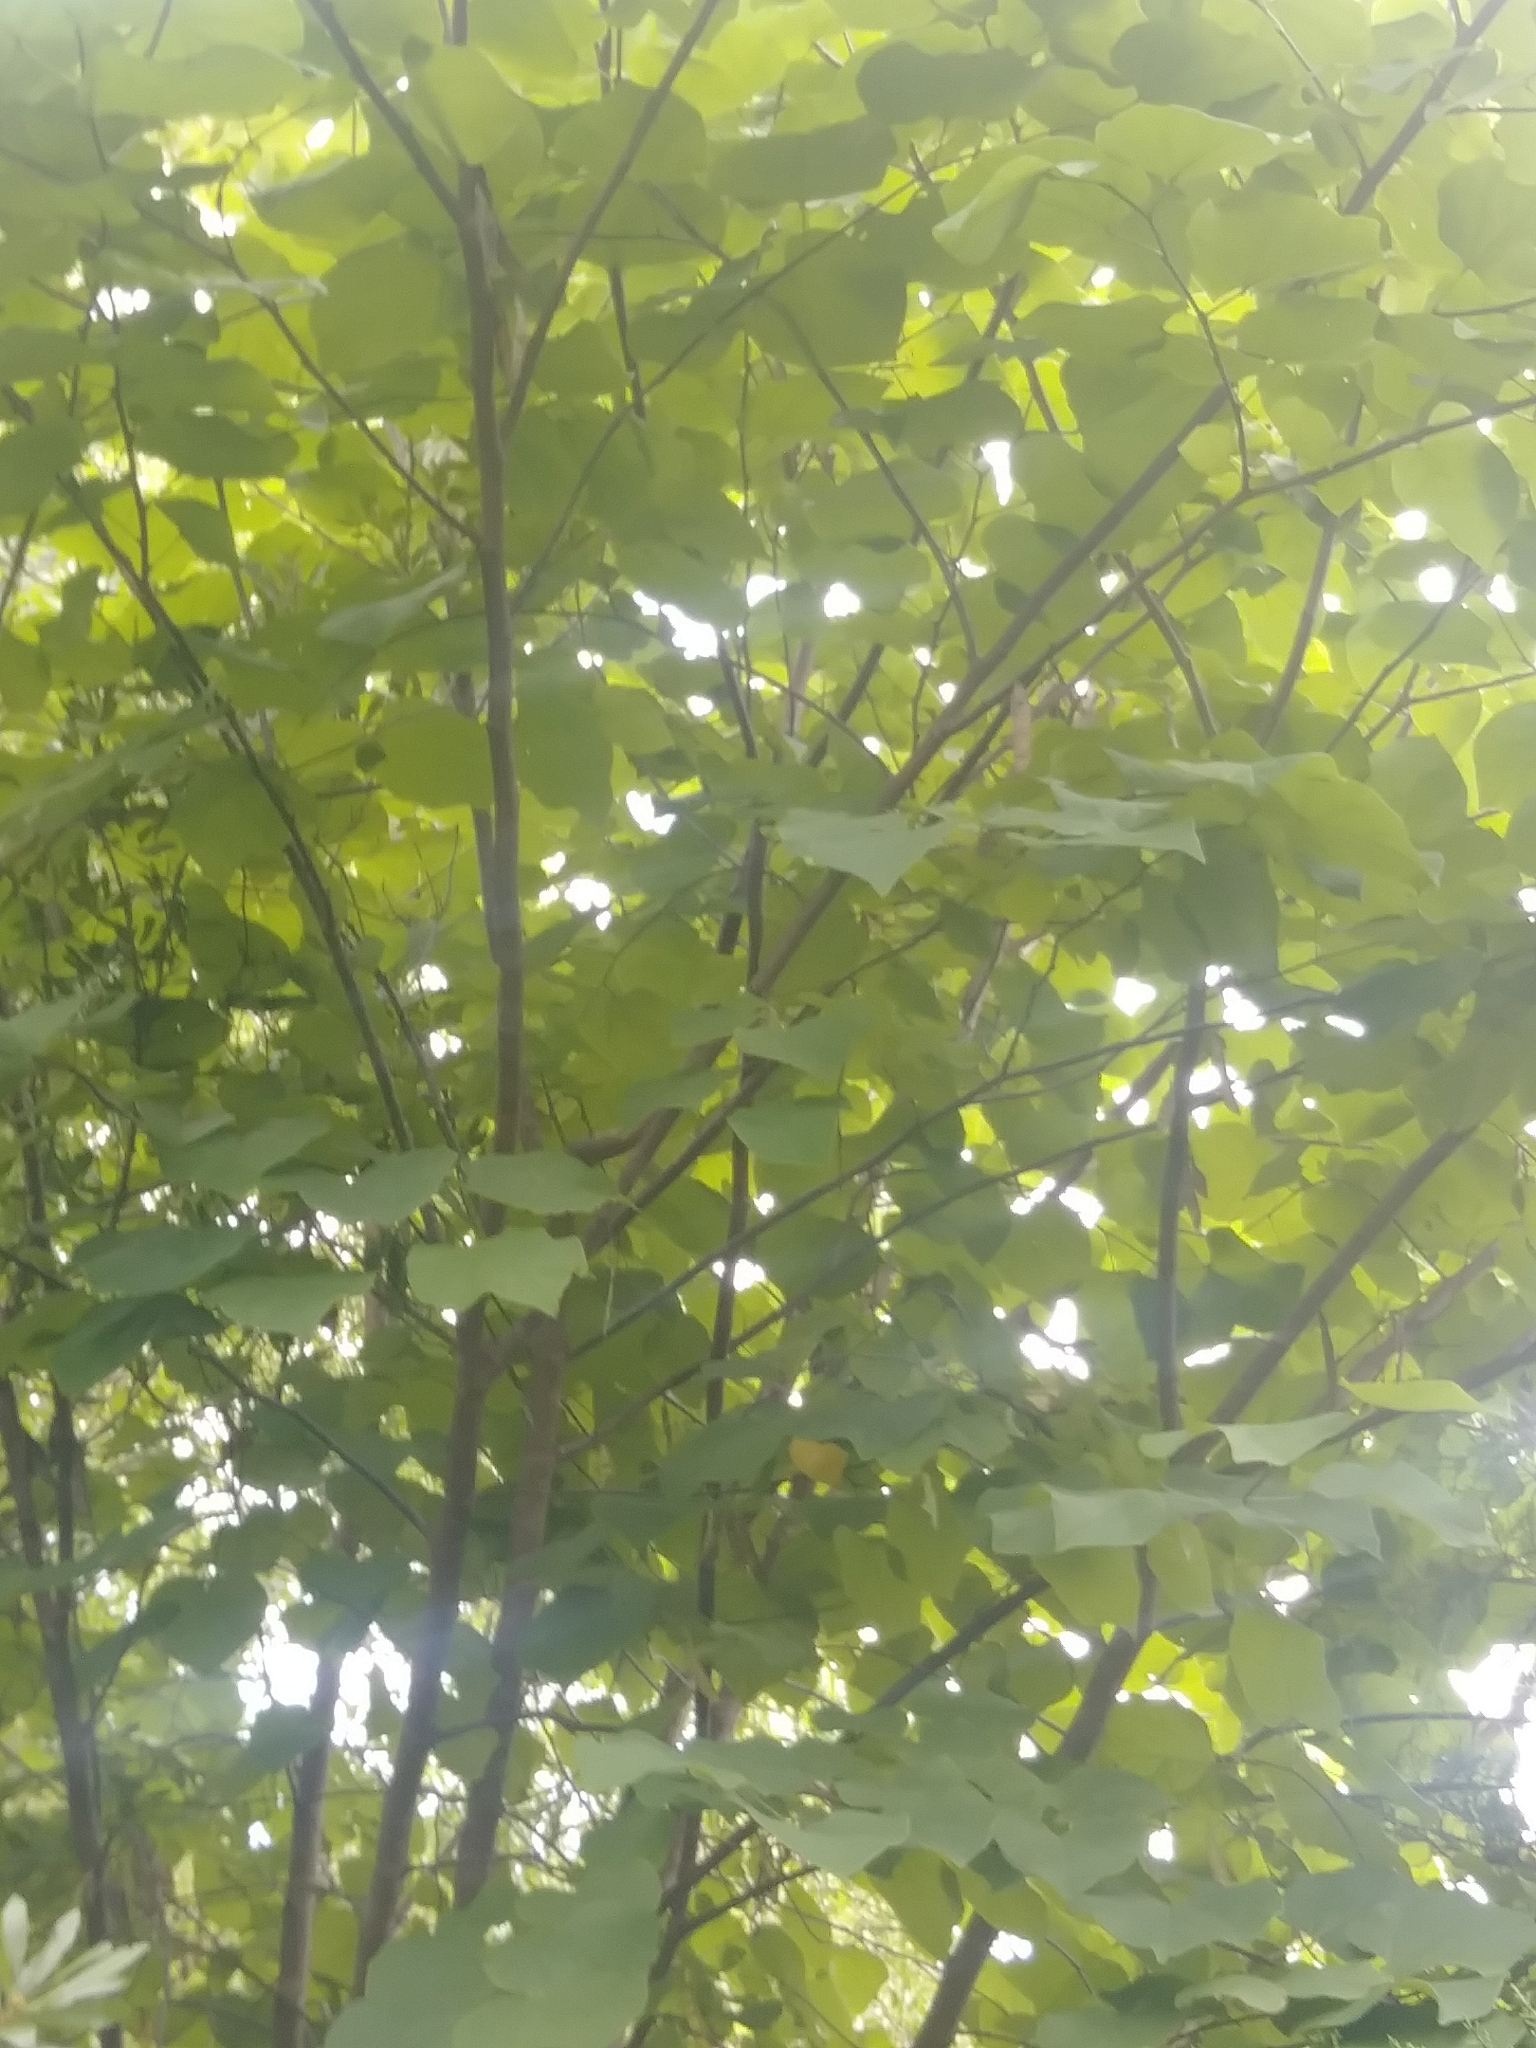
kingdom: Plantae
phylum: Tracheophyta
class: Magnoliopsida
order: Fabales
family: Fabaceae
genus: Cercis
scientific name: Cercis canadensis
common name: Eastern redbud
